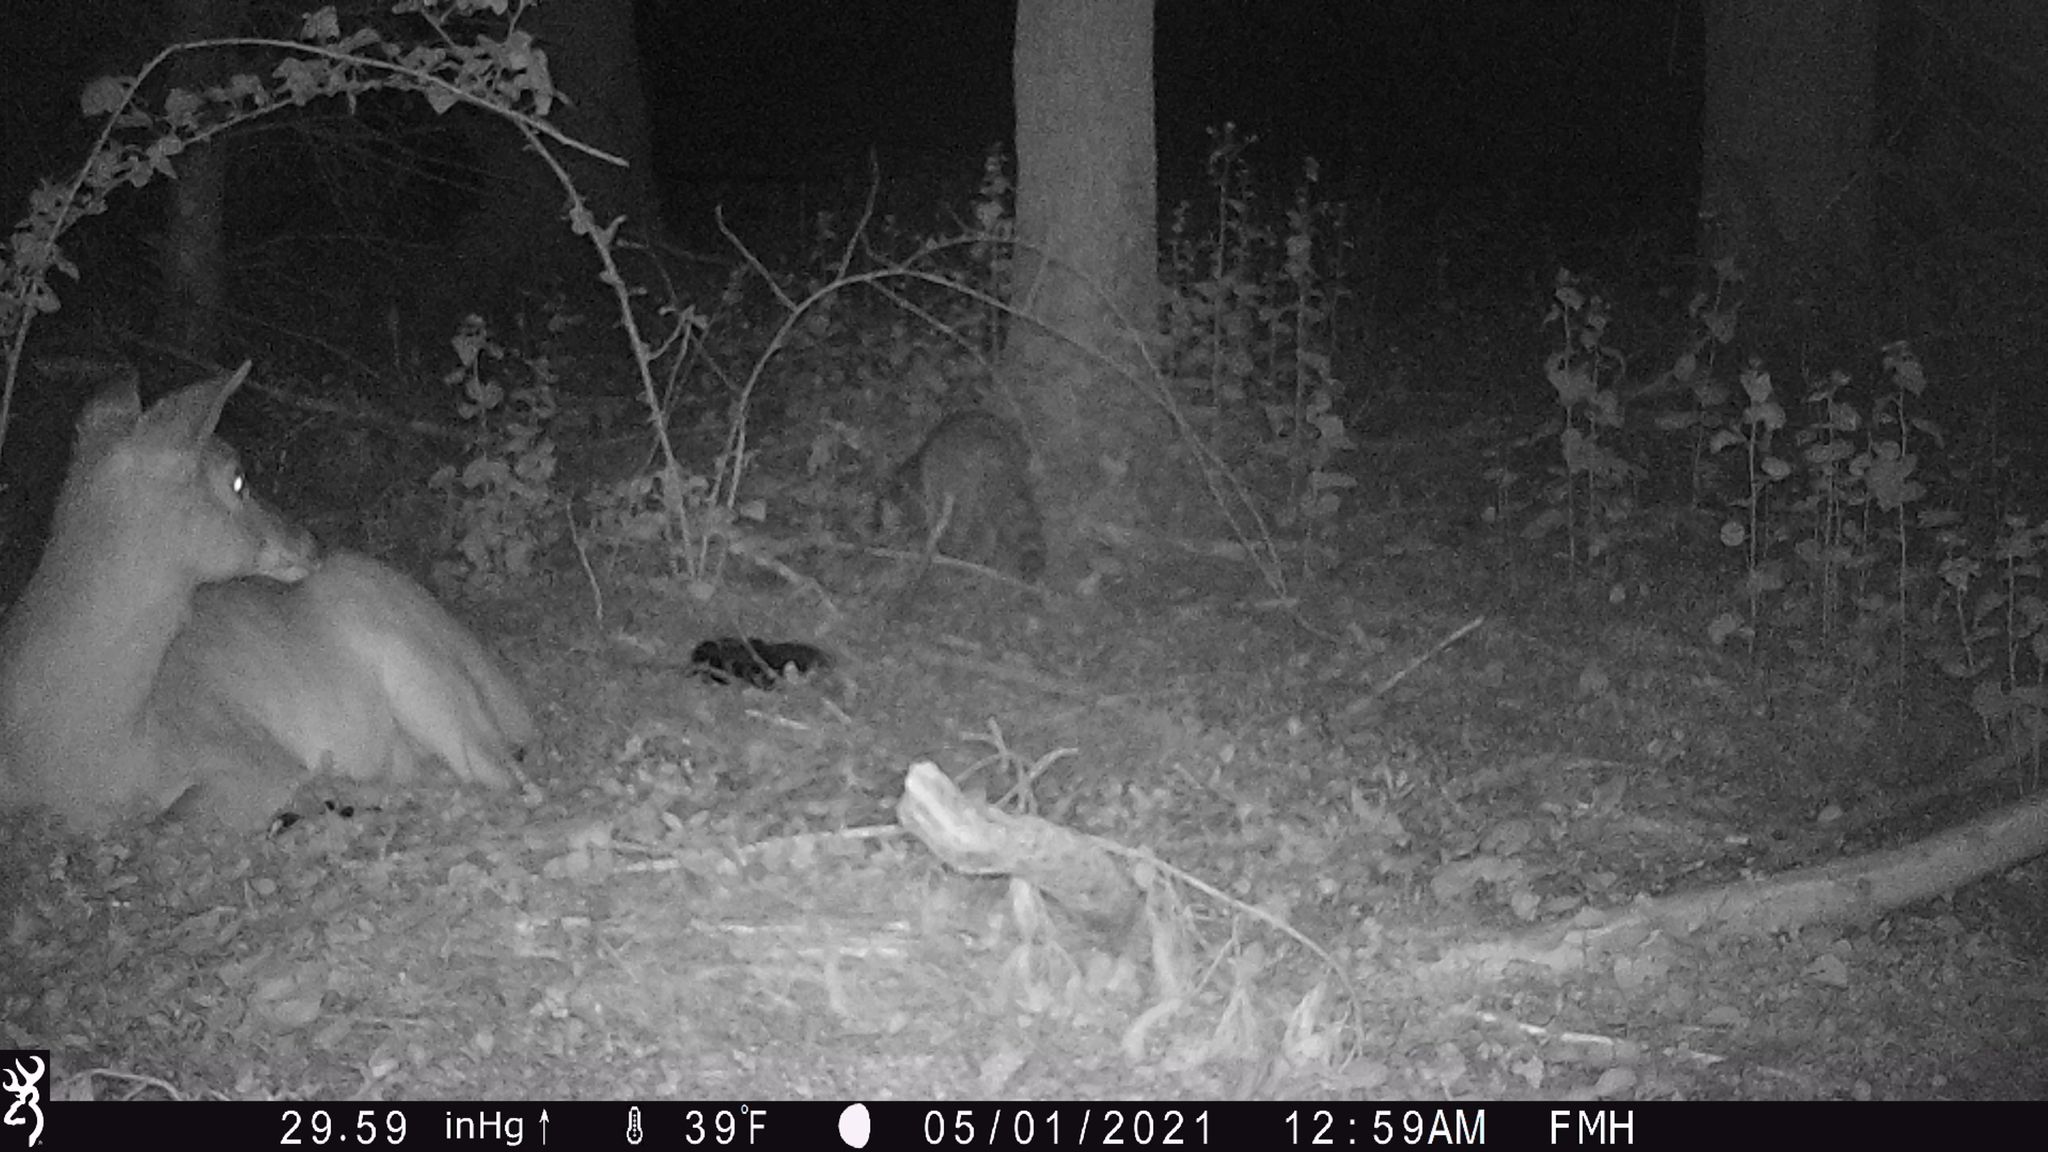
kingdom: Animalia
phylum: Chordata
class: Mammalia
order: Carnivora
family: Procyonidae
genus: Procyon
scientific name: Procyon lotor
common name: Raccoon
